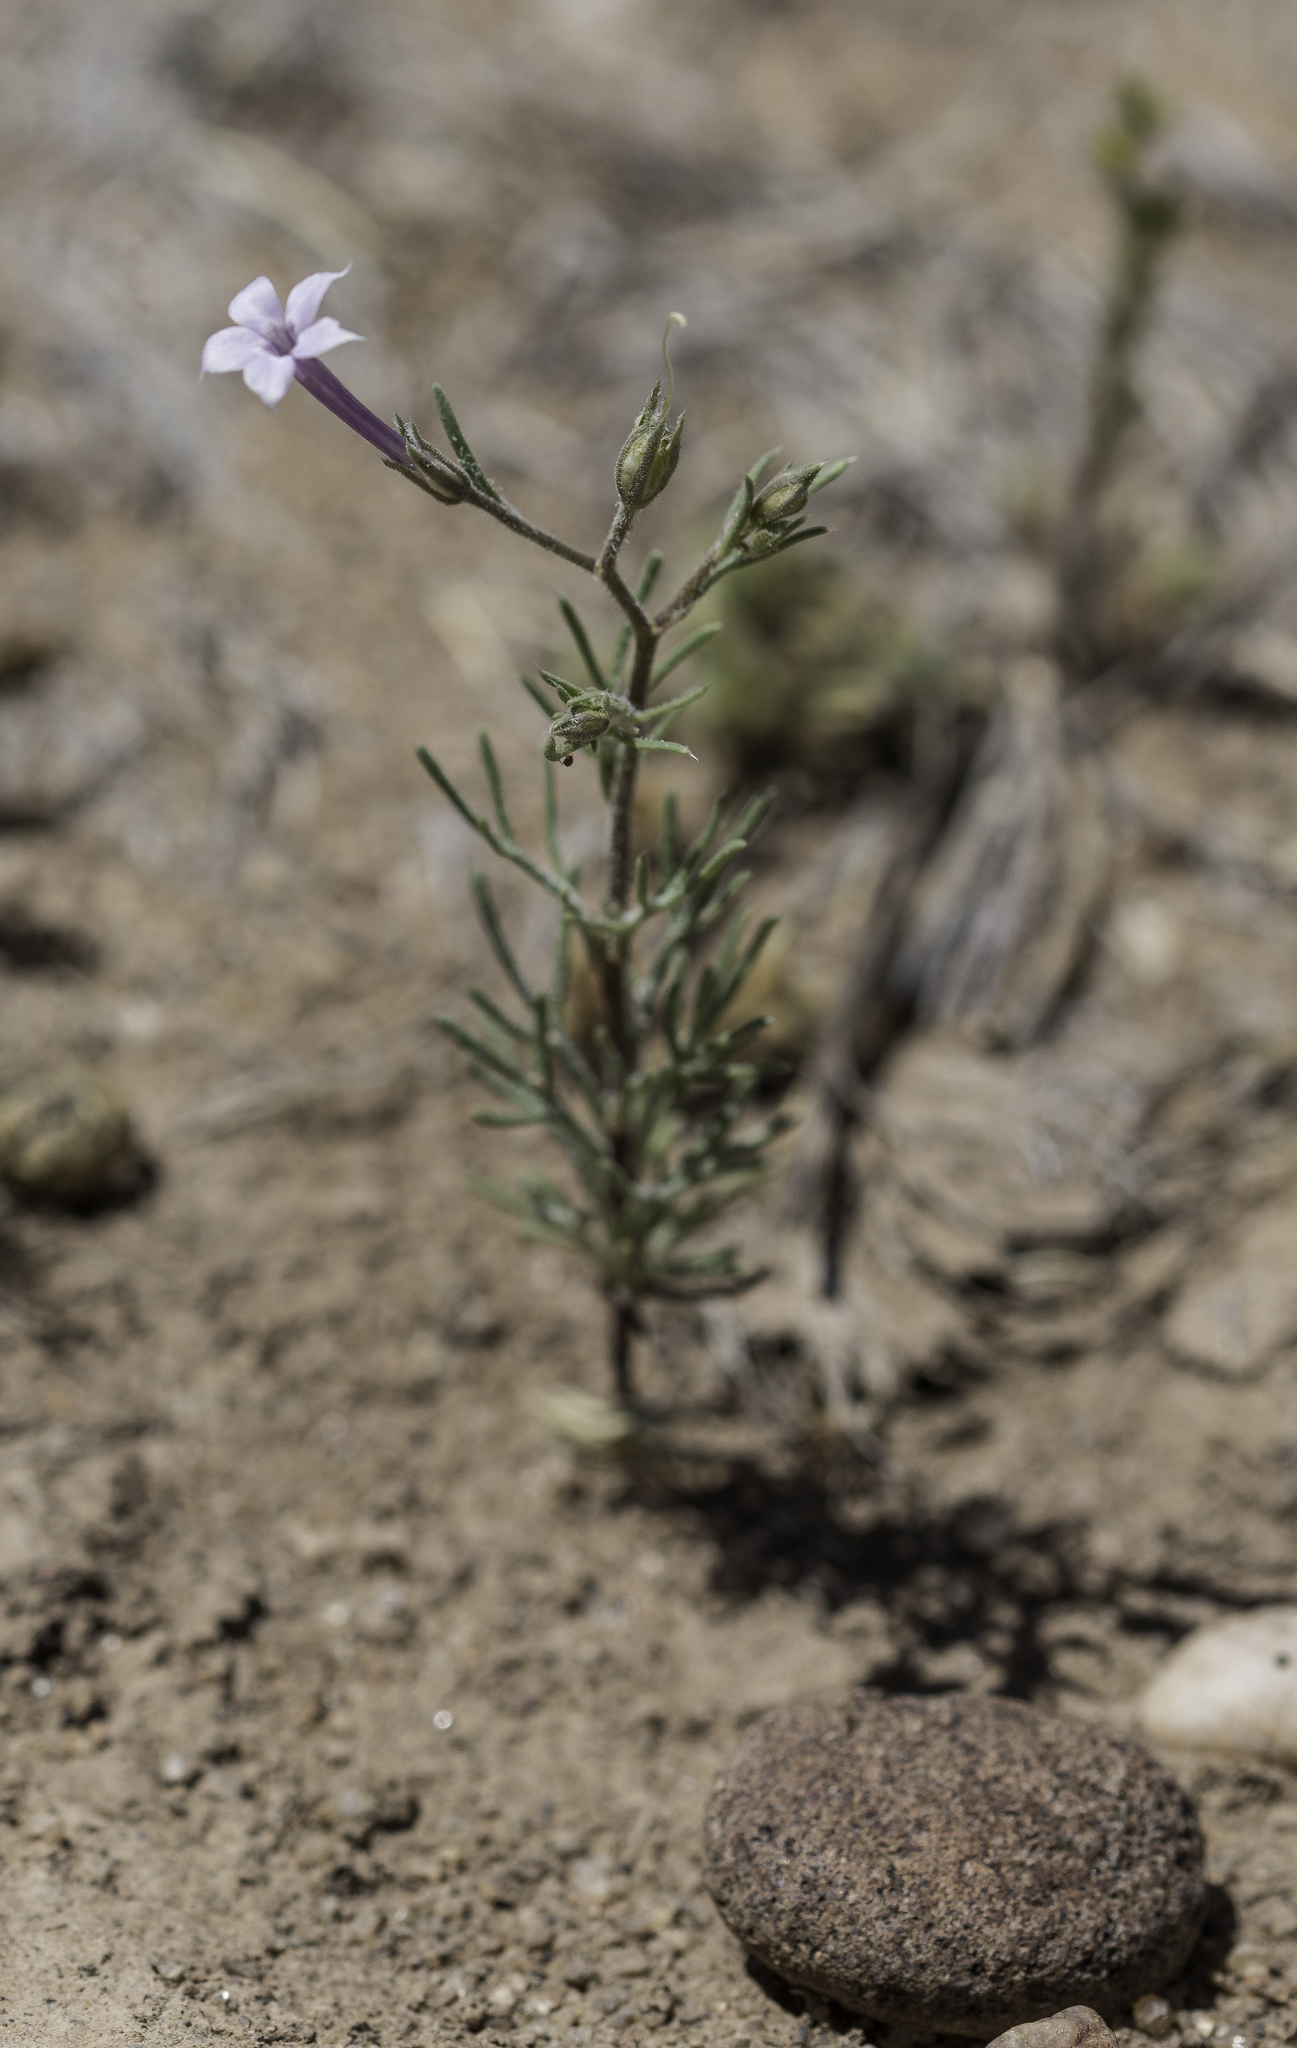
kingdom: Plantae
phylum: Tracheophyta
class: Magnoliopsida
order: Ericales
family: Polemoniaceae
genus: Ipomopsis
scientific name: Ipomopsis laxiflora
